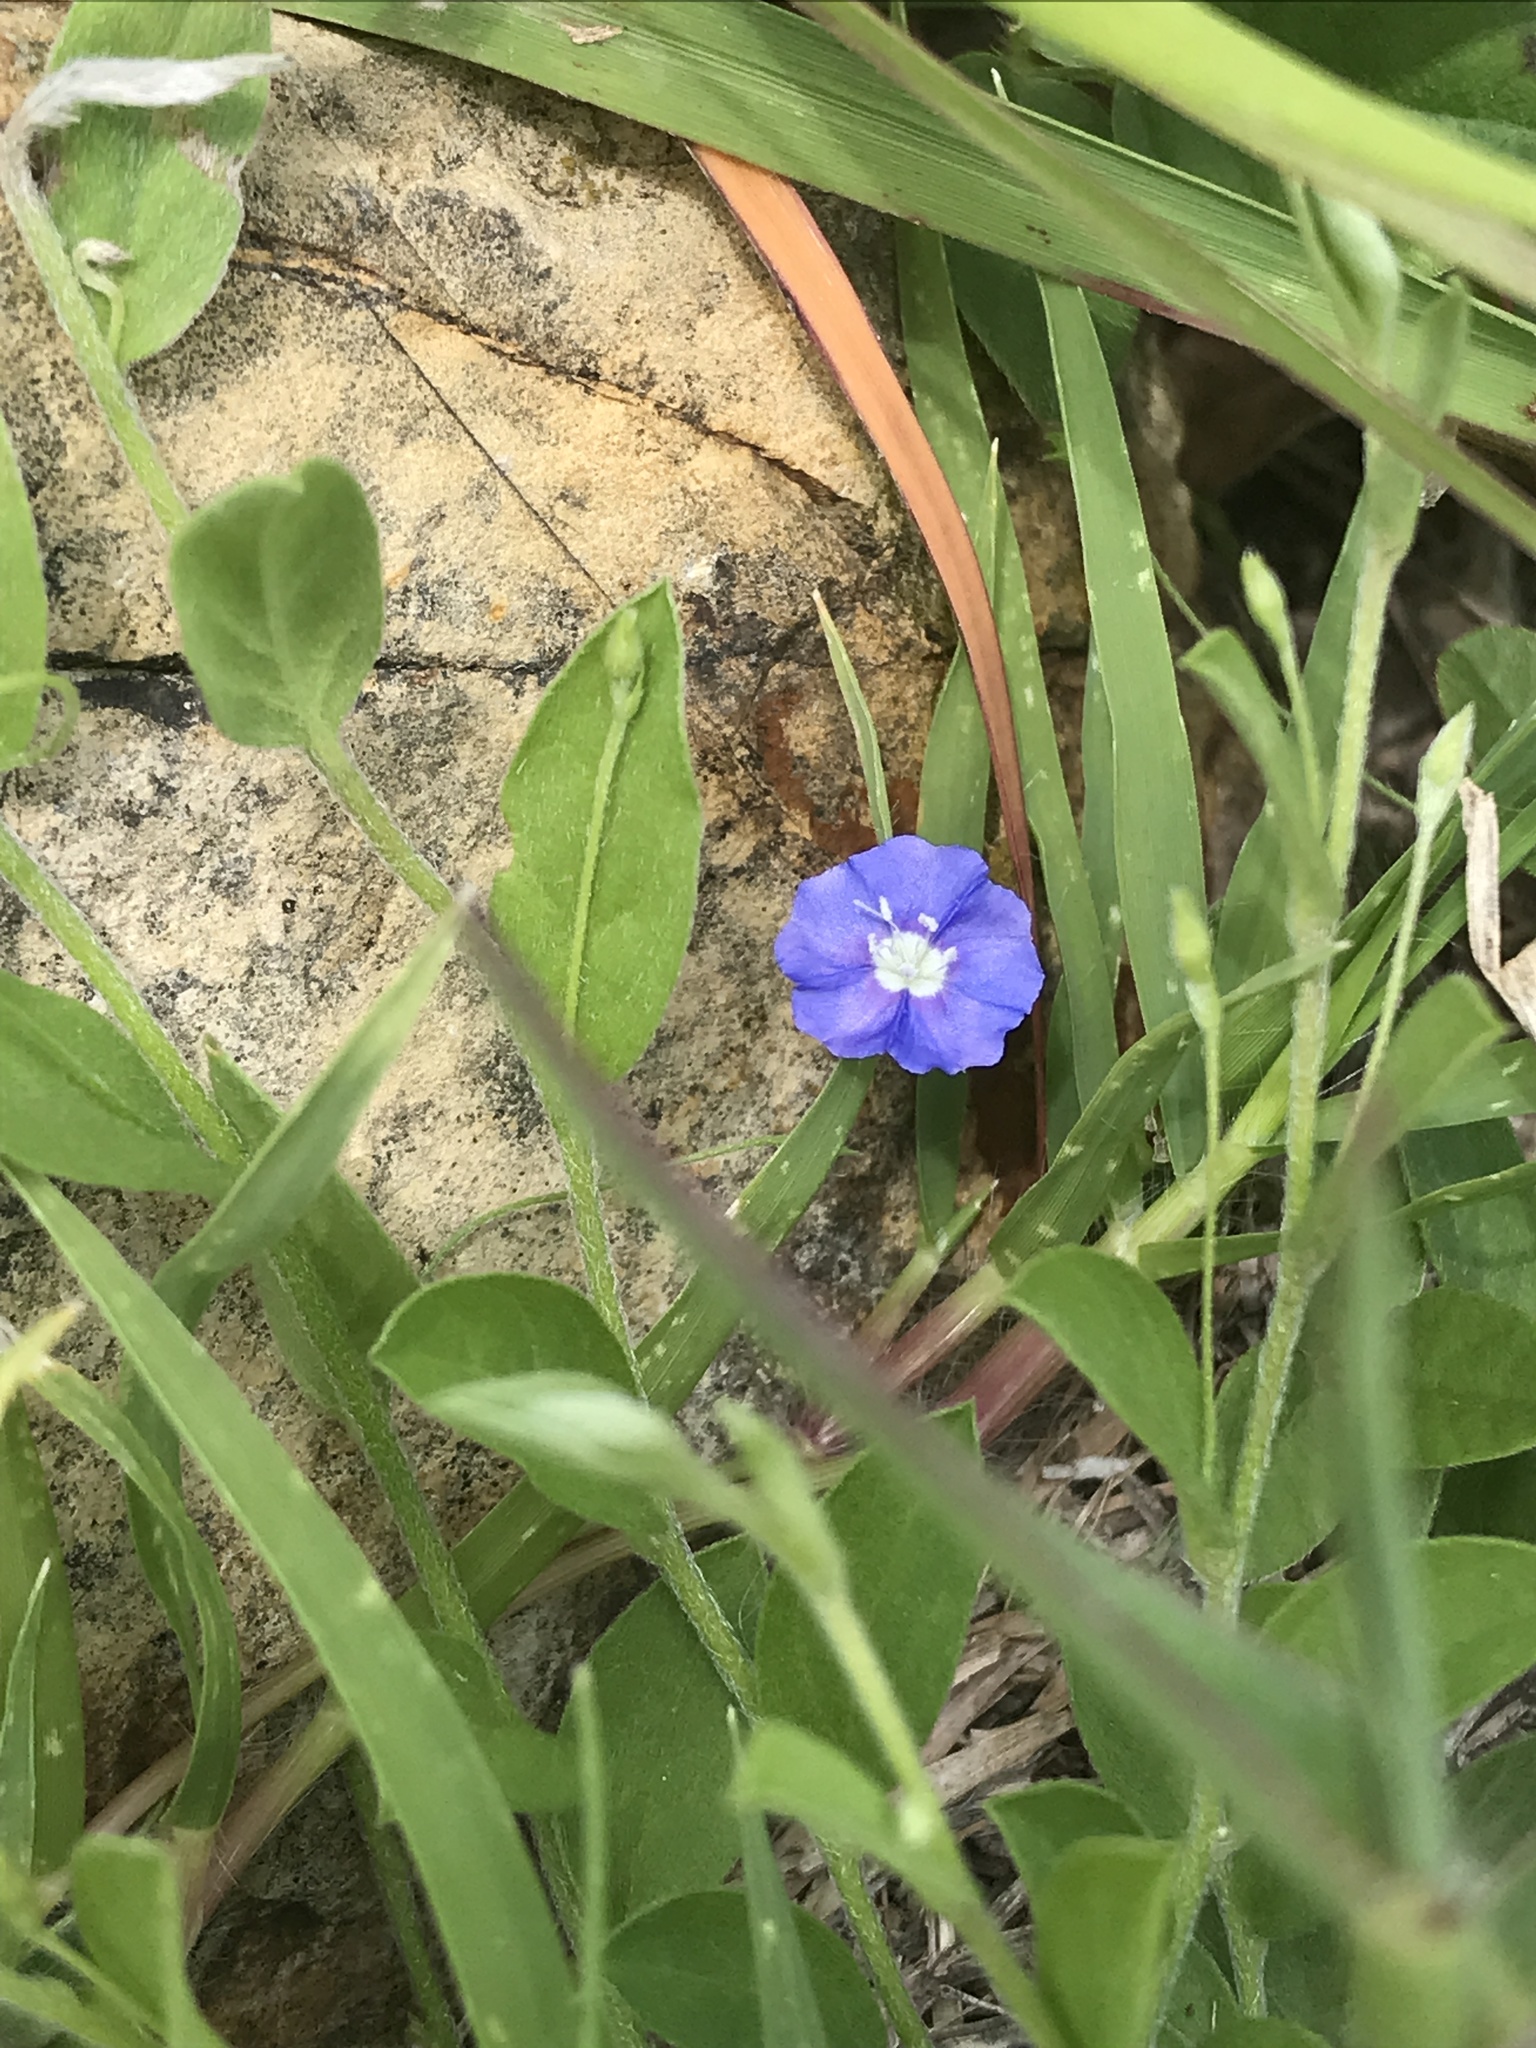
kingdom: Plantae
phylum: Tracheophyta
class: Magnoliopsida
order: Solanales
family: Convolvulaceae
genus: Evolvulus
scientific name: Evolvulus alsinoides
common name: Slender dwarf morning-glory
